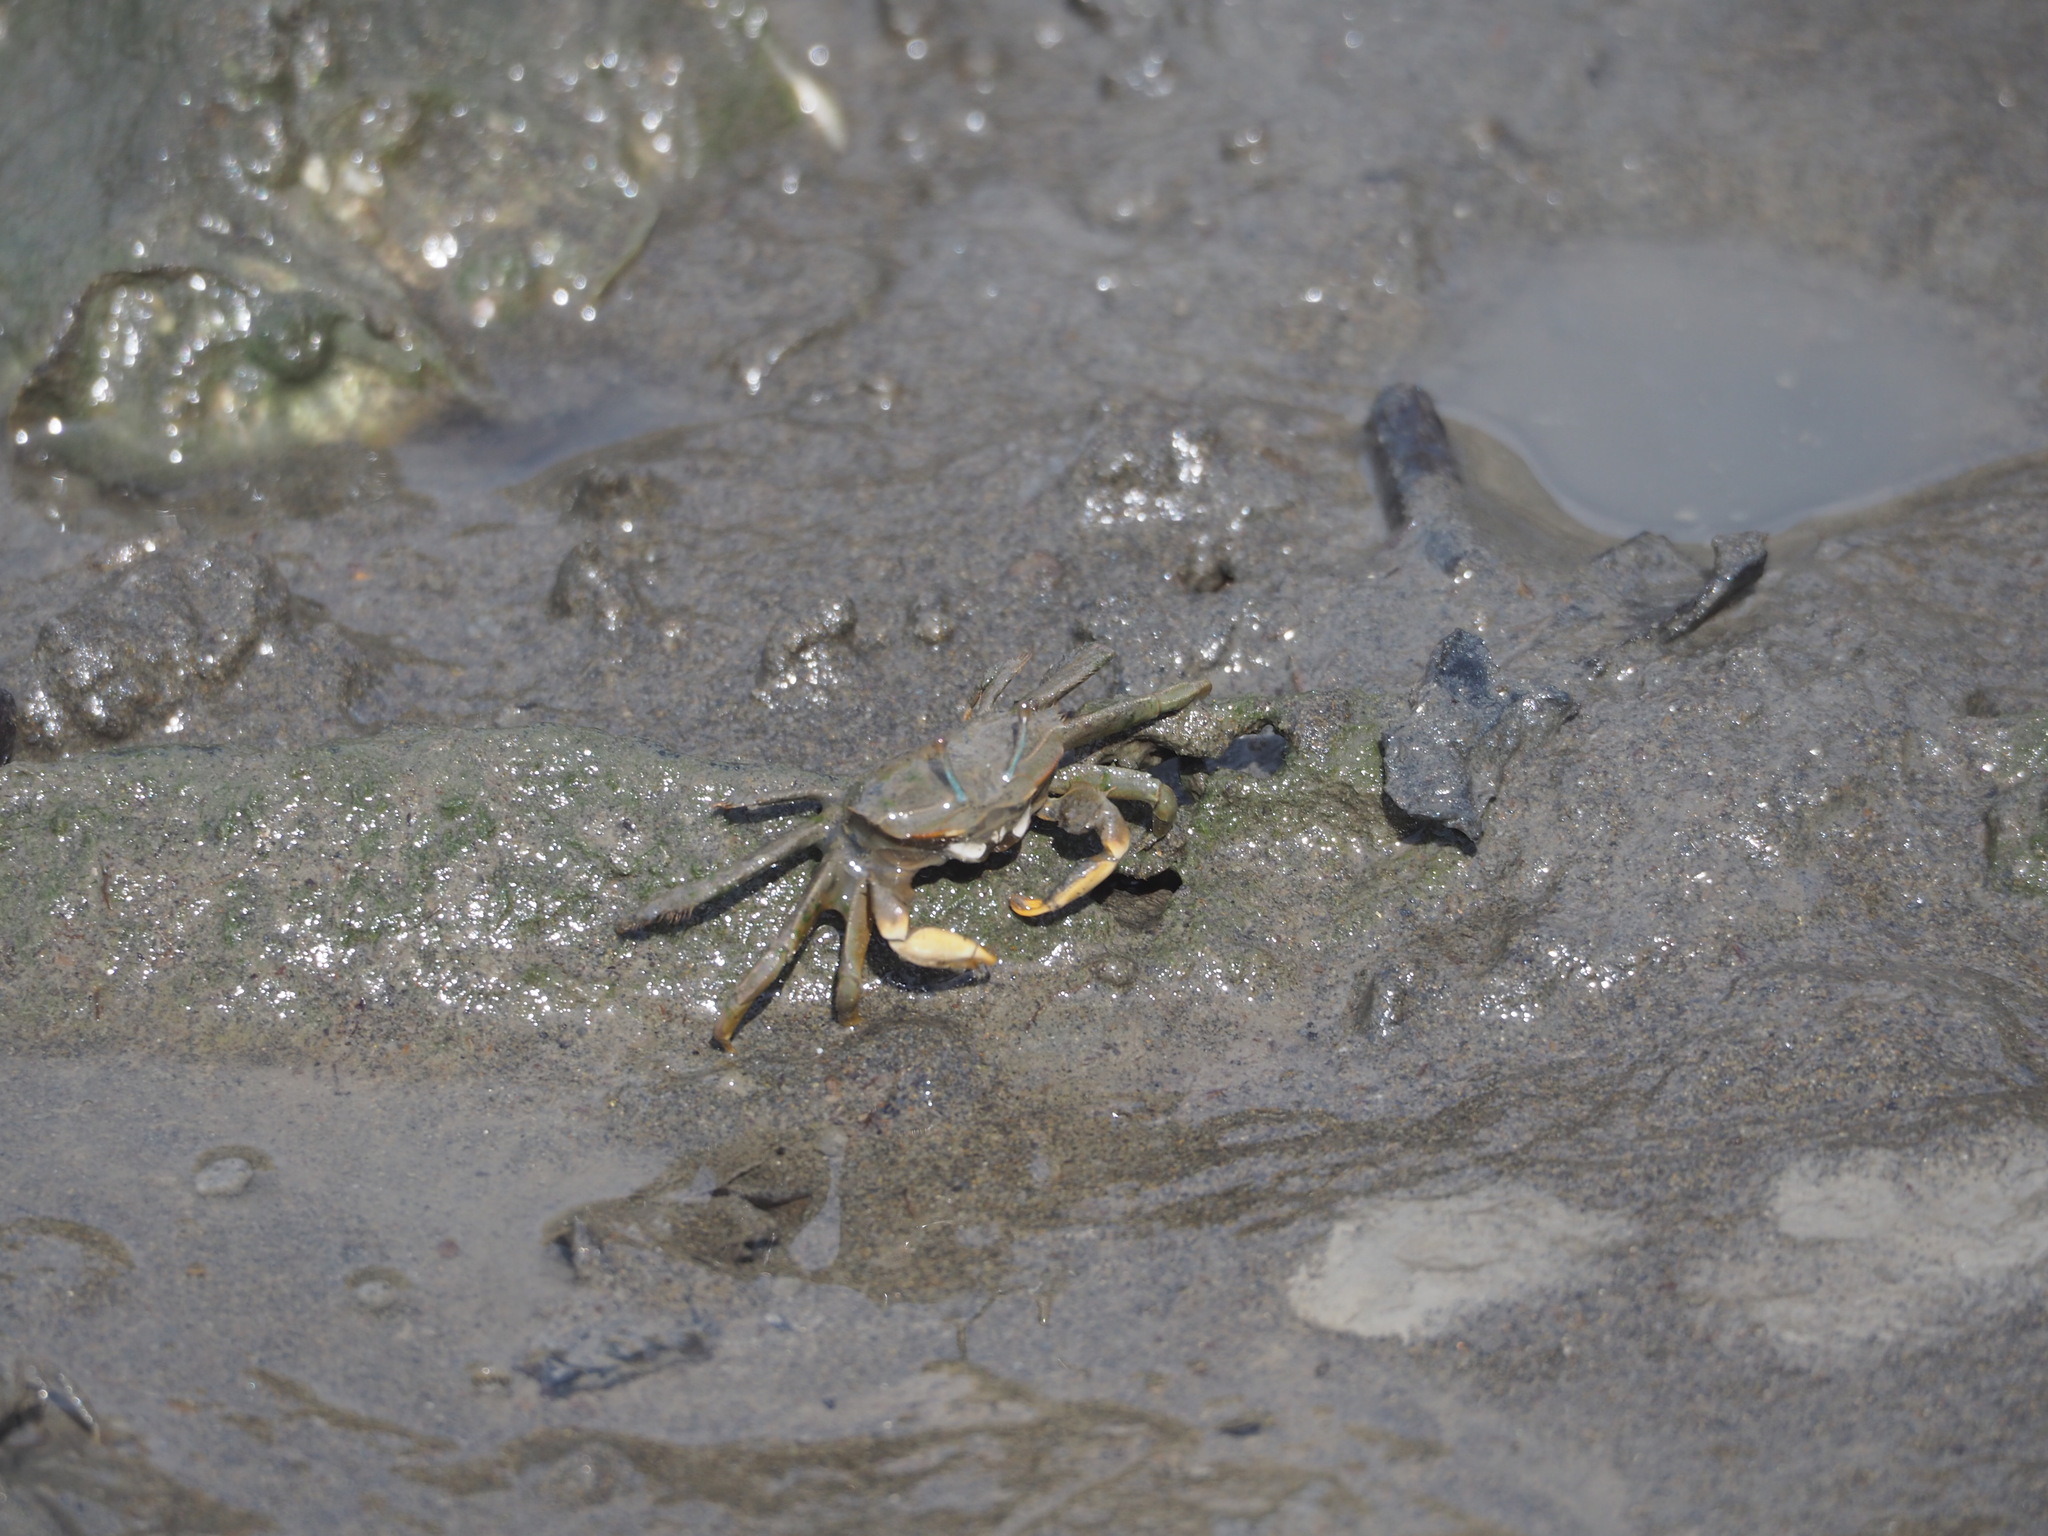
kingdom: Animalia
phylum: Arthropoda
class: Malacostraca
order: Decapoda
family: Macrophthalmidae
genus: Macrophthalmus
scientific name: Macrophthalmus banzai
